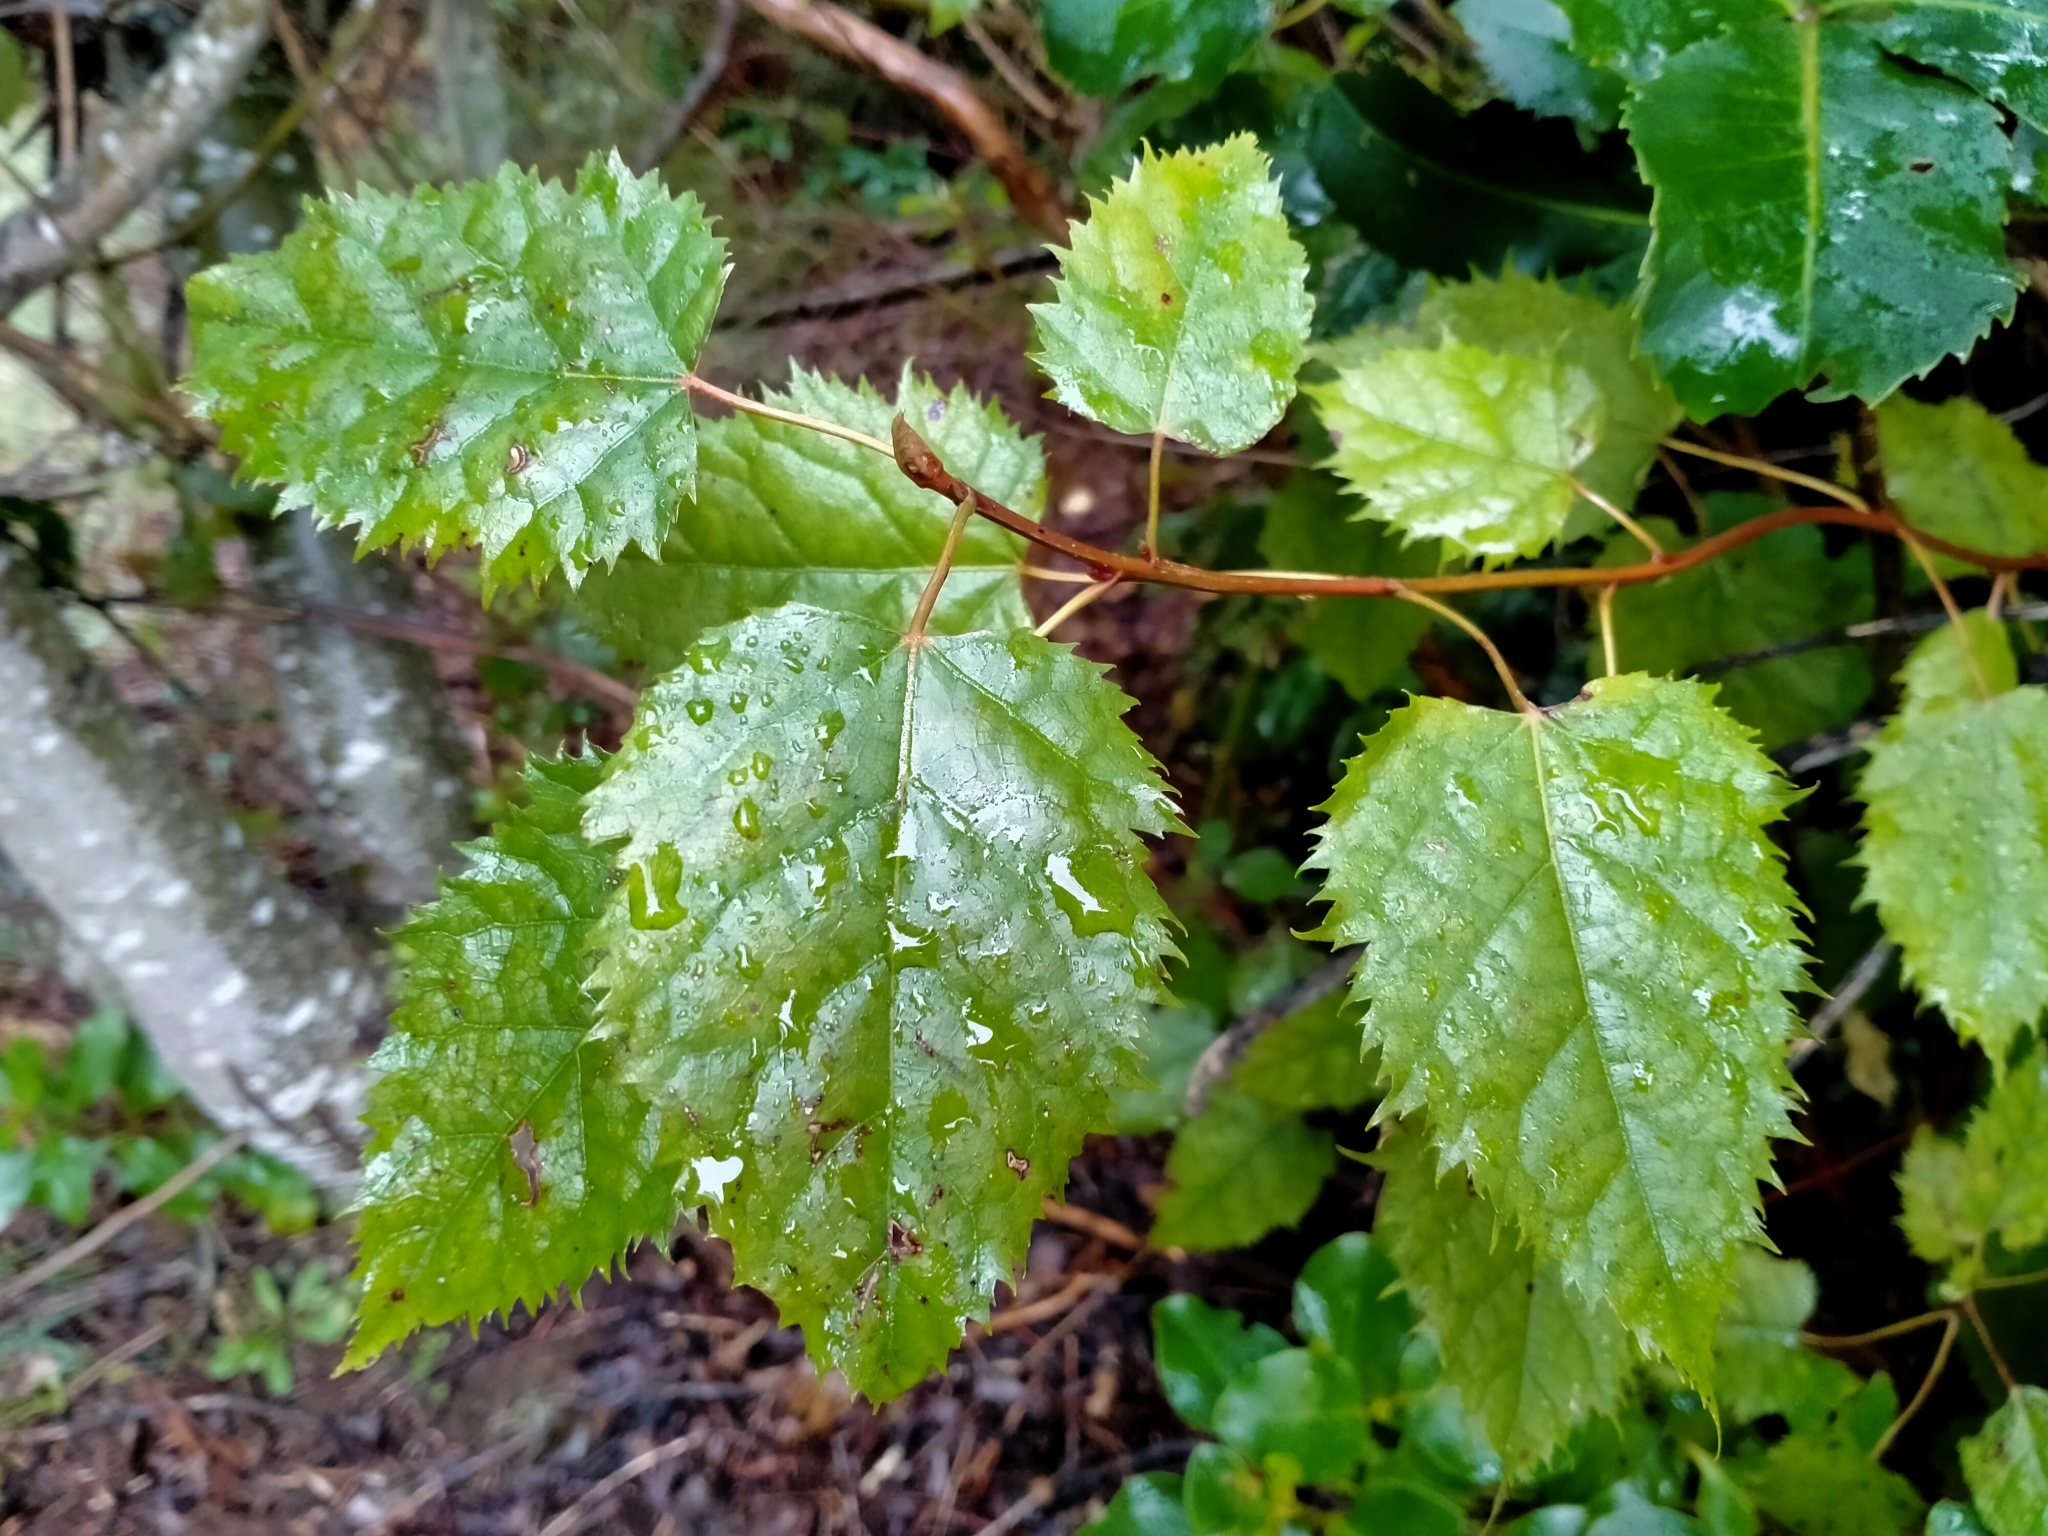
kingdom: Plantae
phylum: Tracheophyta
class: Magnoliopsida
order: Oxalidales
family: Elaeocarpaceae
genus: Aristotelia
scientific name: Aristotelia serrata
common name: New zealand wineberry
